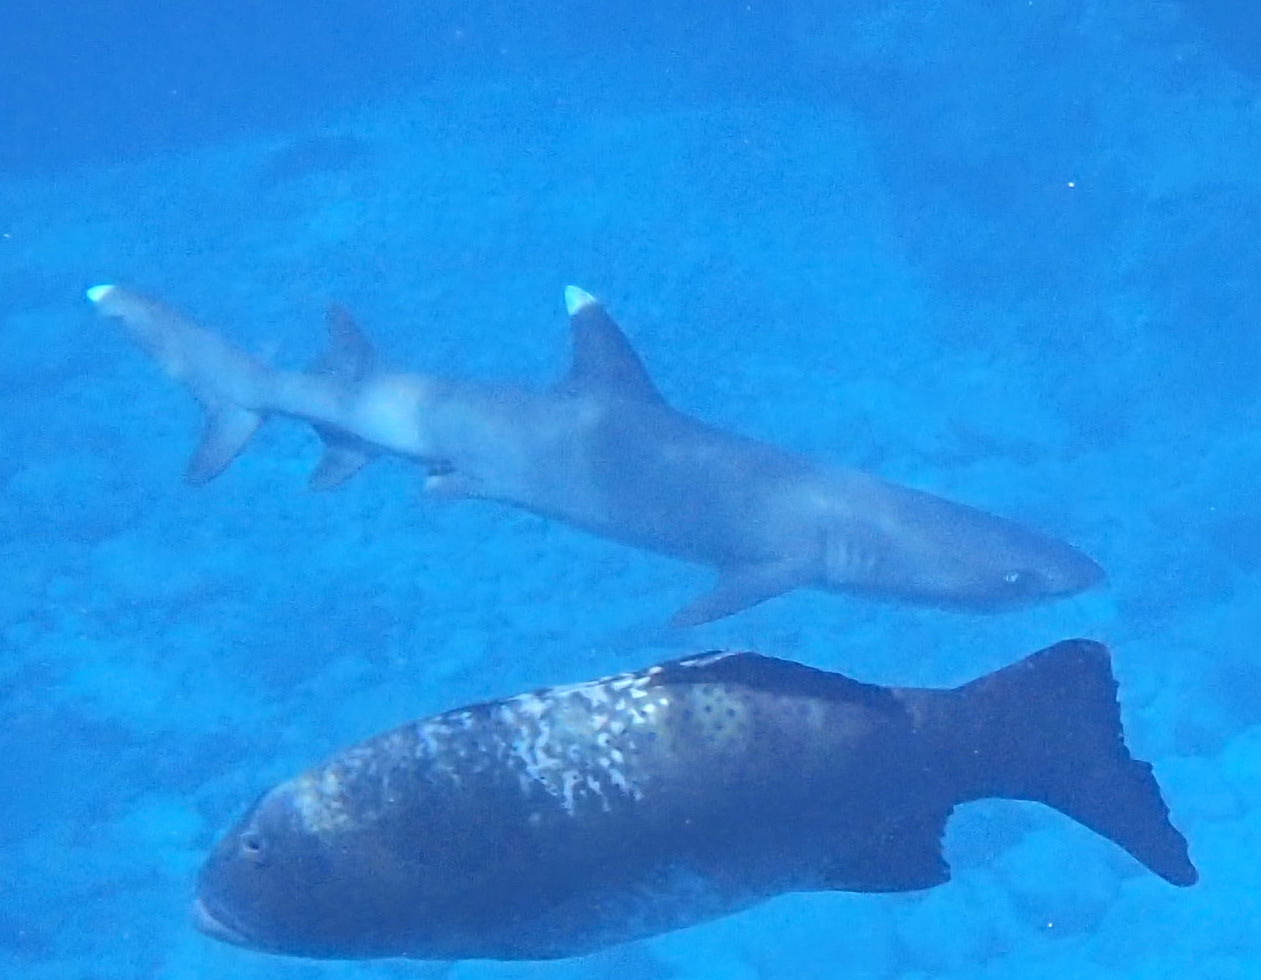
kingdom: Animalia
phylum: Chordata
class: Elasmobranchii
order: Carcharhiniformes
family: Carcharhinidae
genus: Triaenodon
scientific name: Triaenodon obesus
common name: Whitetip reef shark
